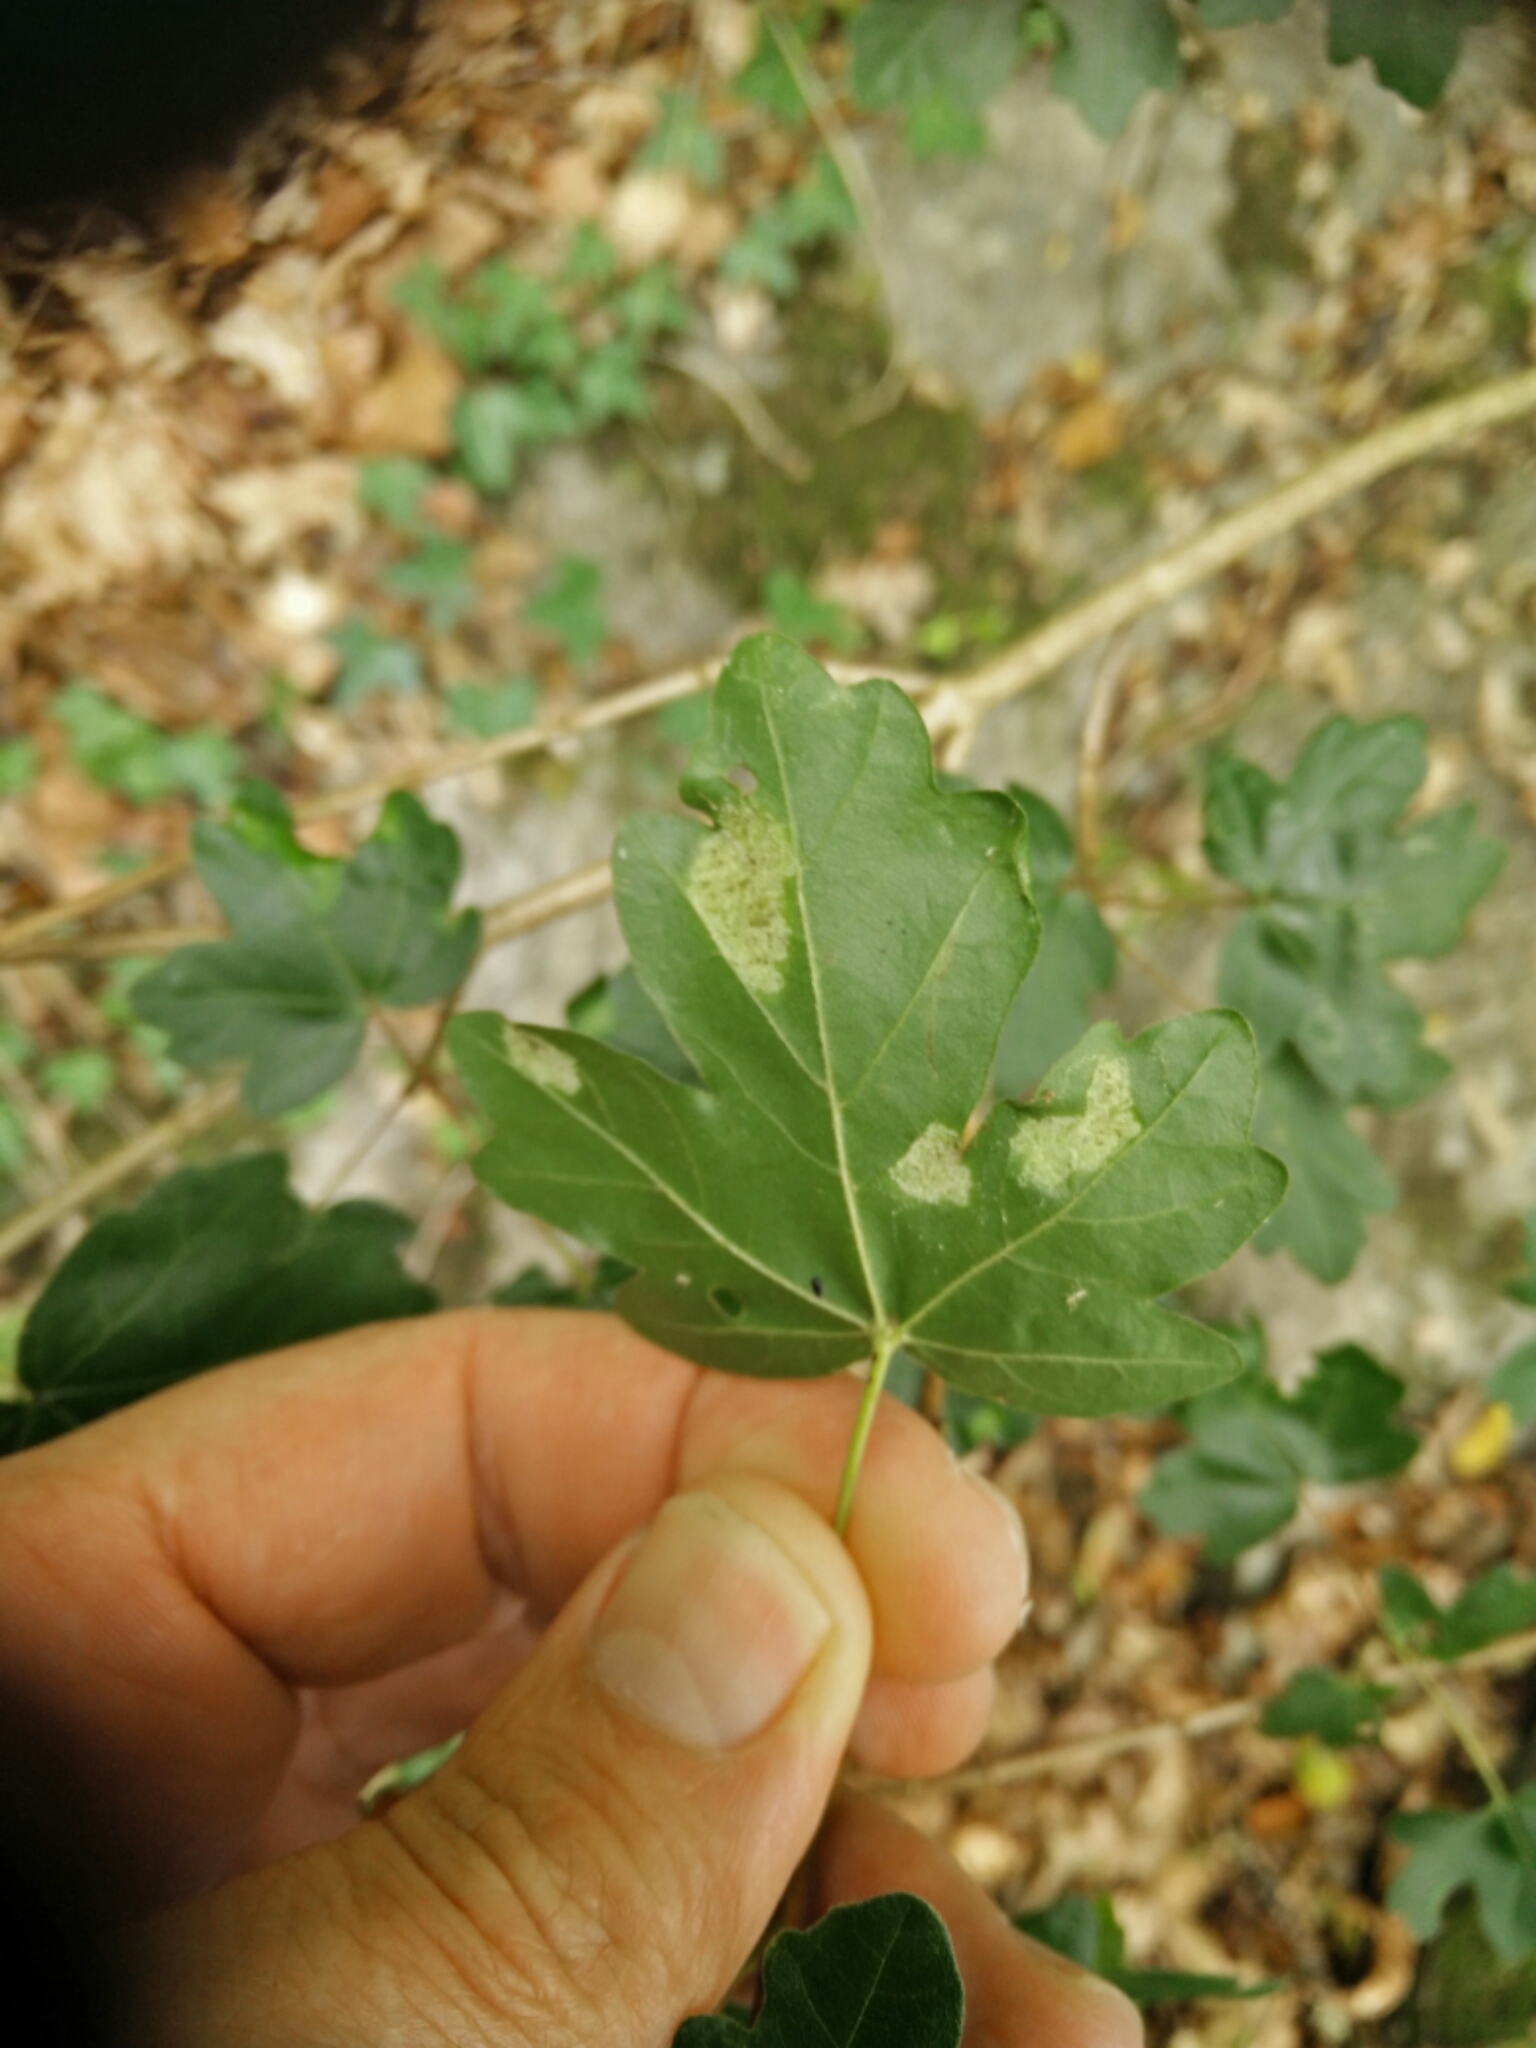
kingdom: Animalia
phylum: Arthropoda
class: Arachnida
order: Trombidiformes
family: Eriophyidae
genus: Aceria
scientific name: Aceria macrocheluserinea
